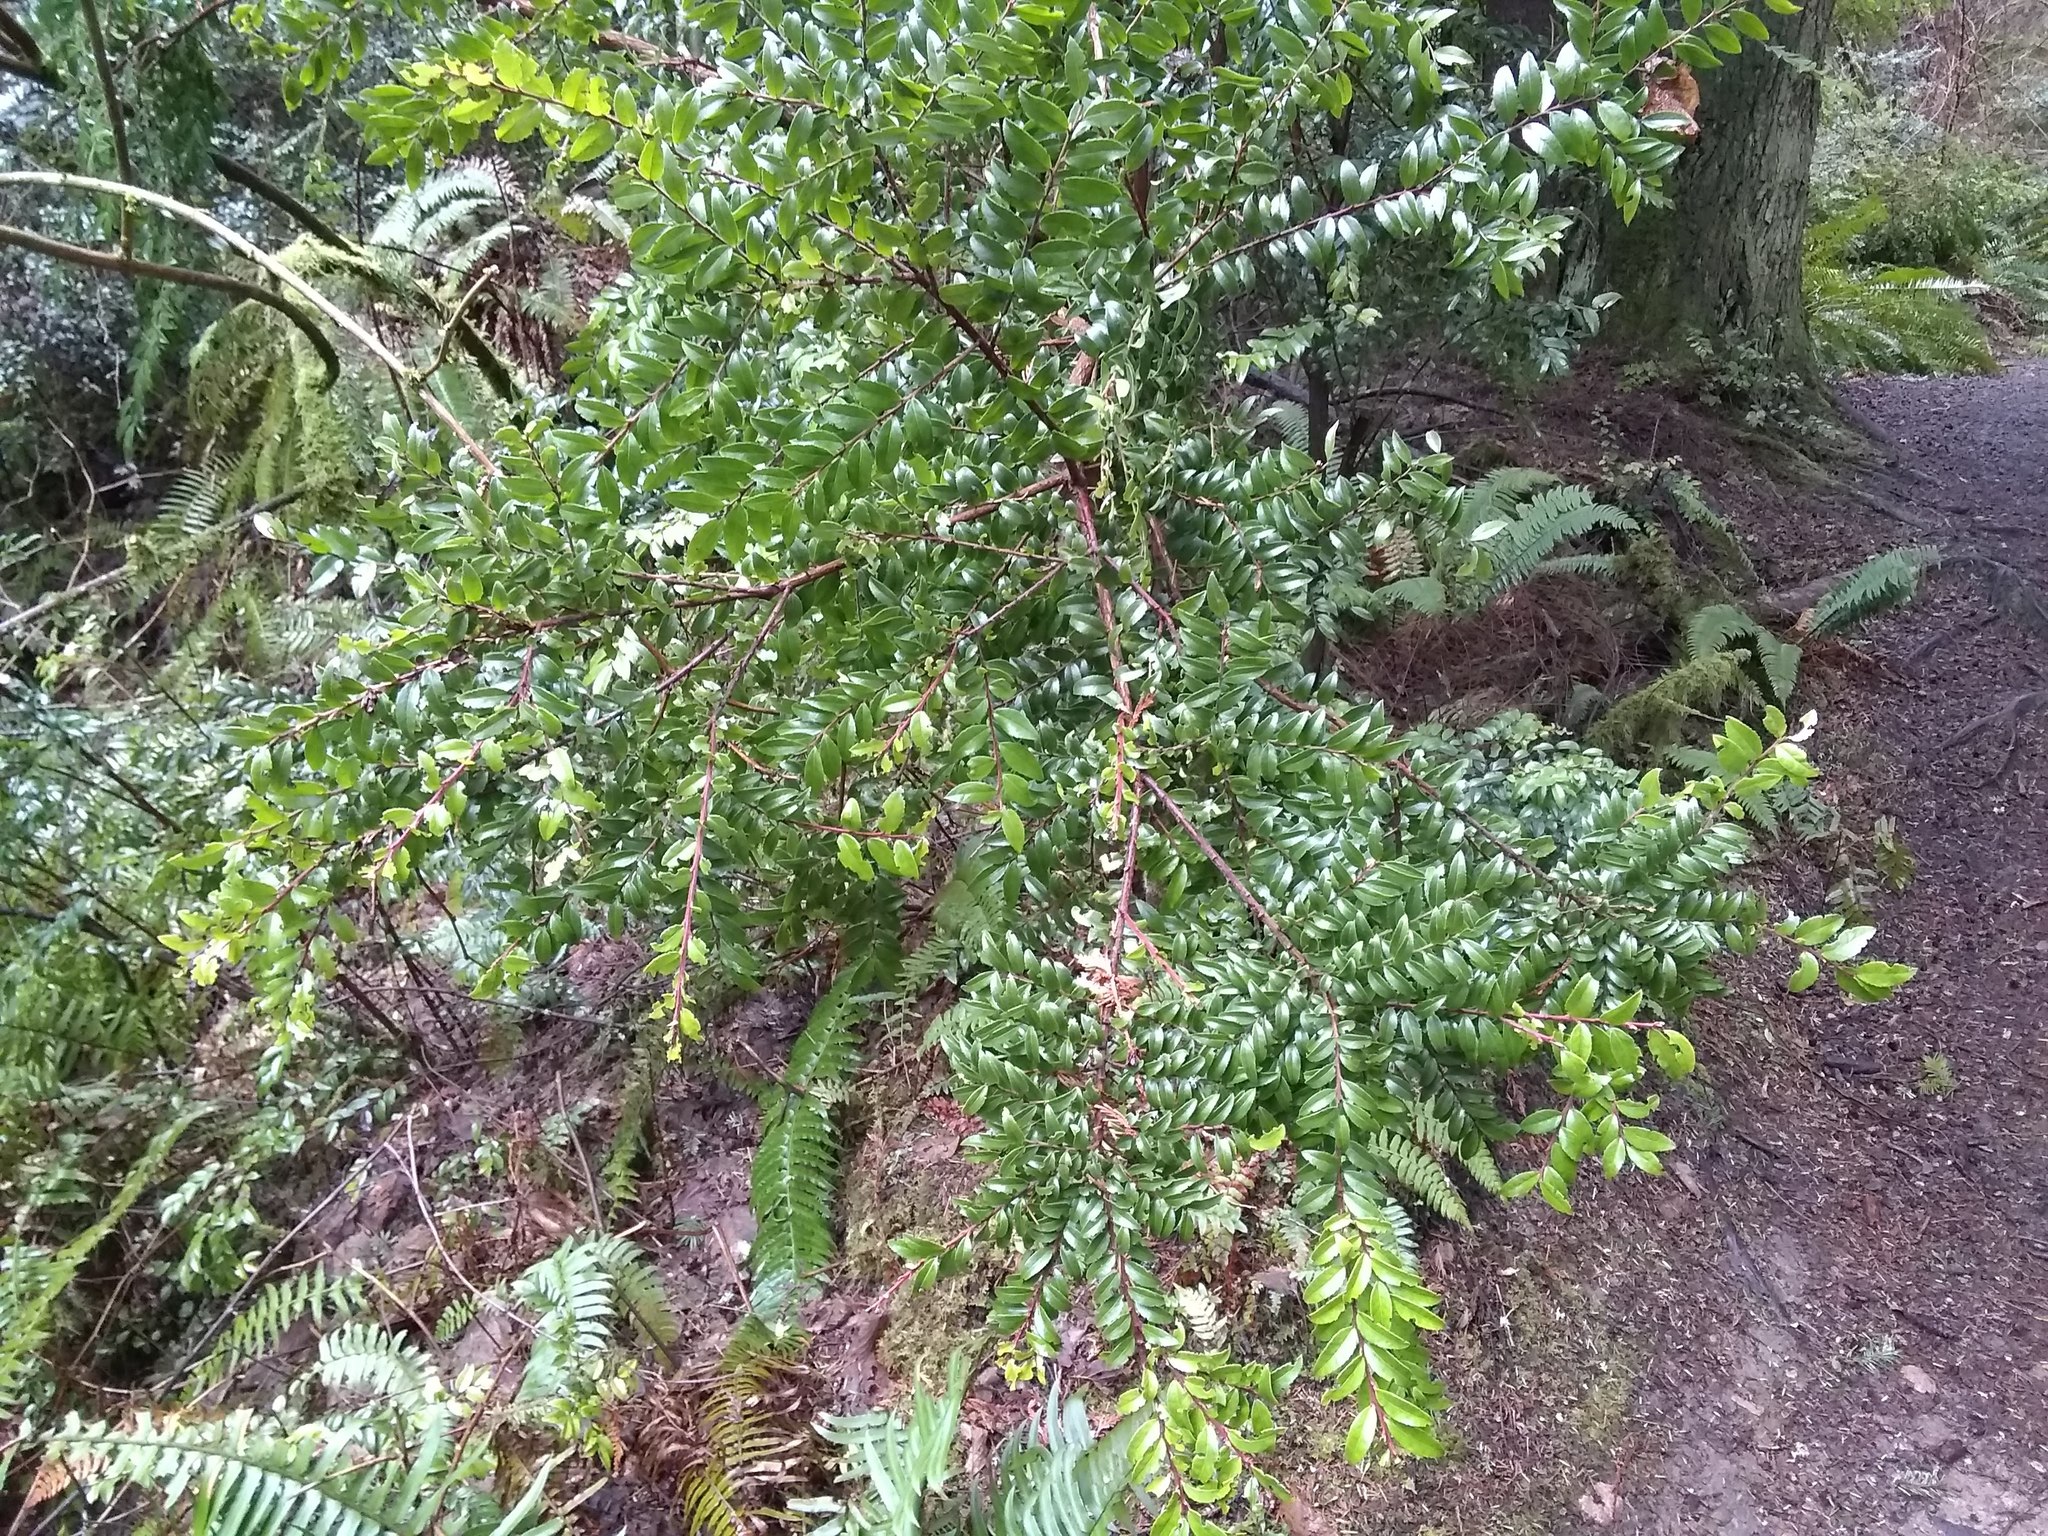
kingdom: Plantae
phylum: Tracheophyta
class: Magnoliopsida
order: Ericales
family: Ericaceae
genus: Vaccinium
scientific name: Vaccinium ovatum
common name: California-huckleberry
